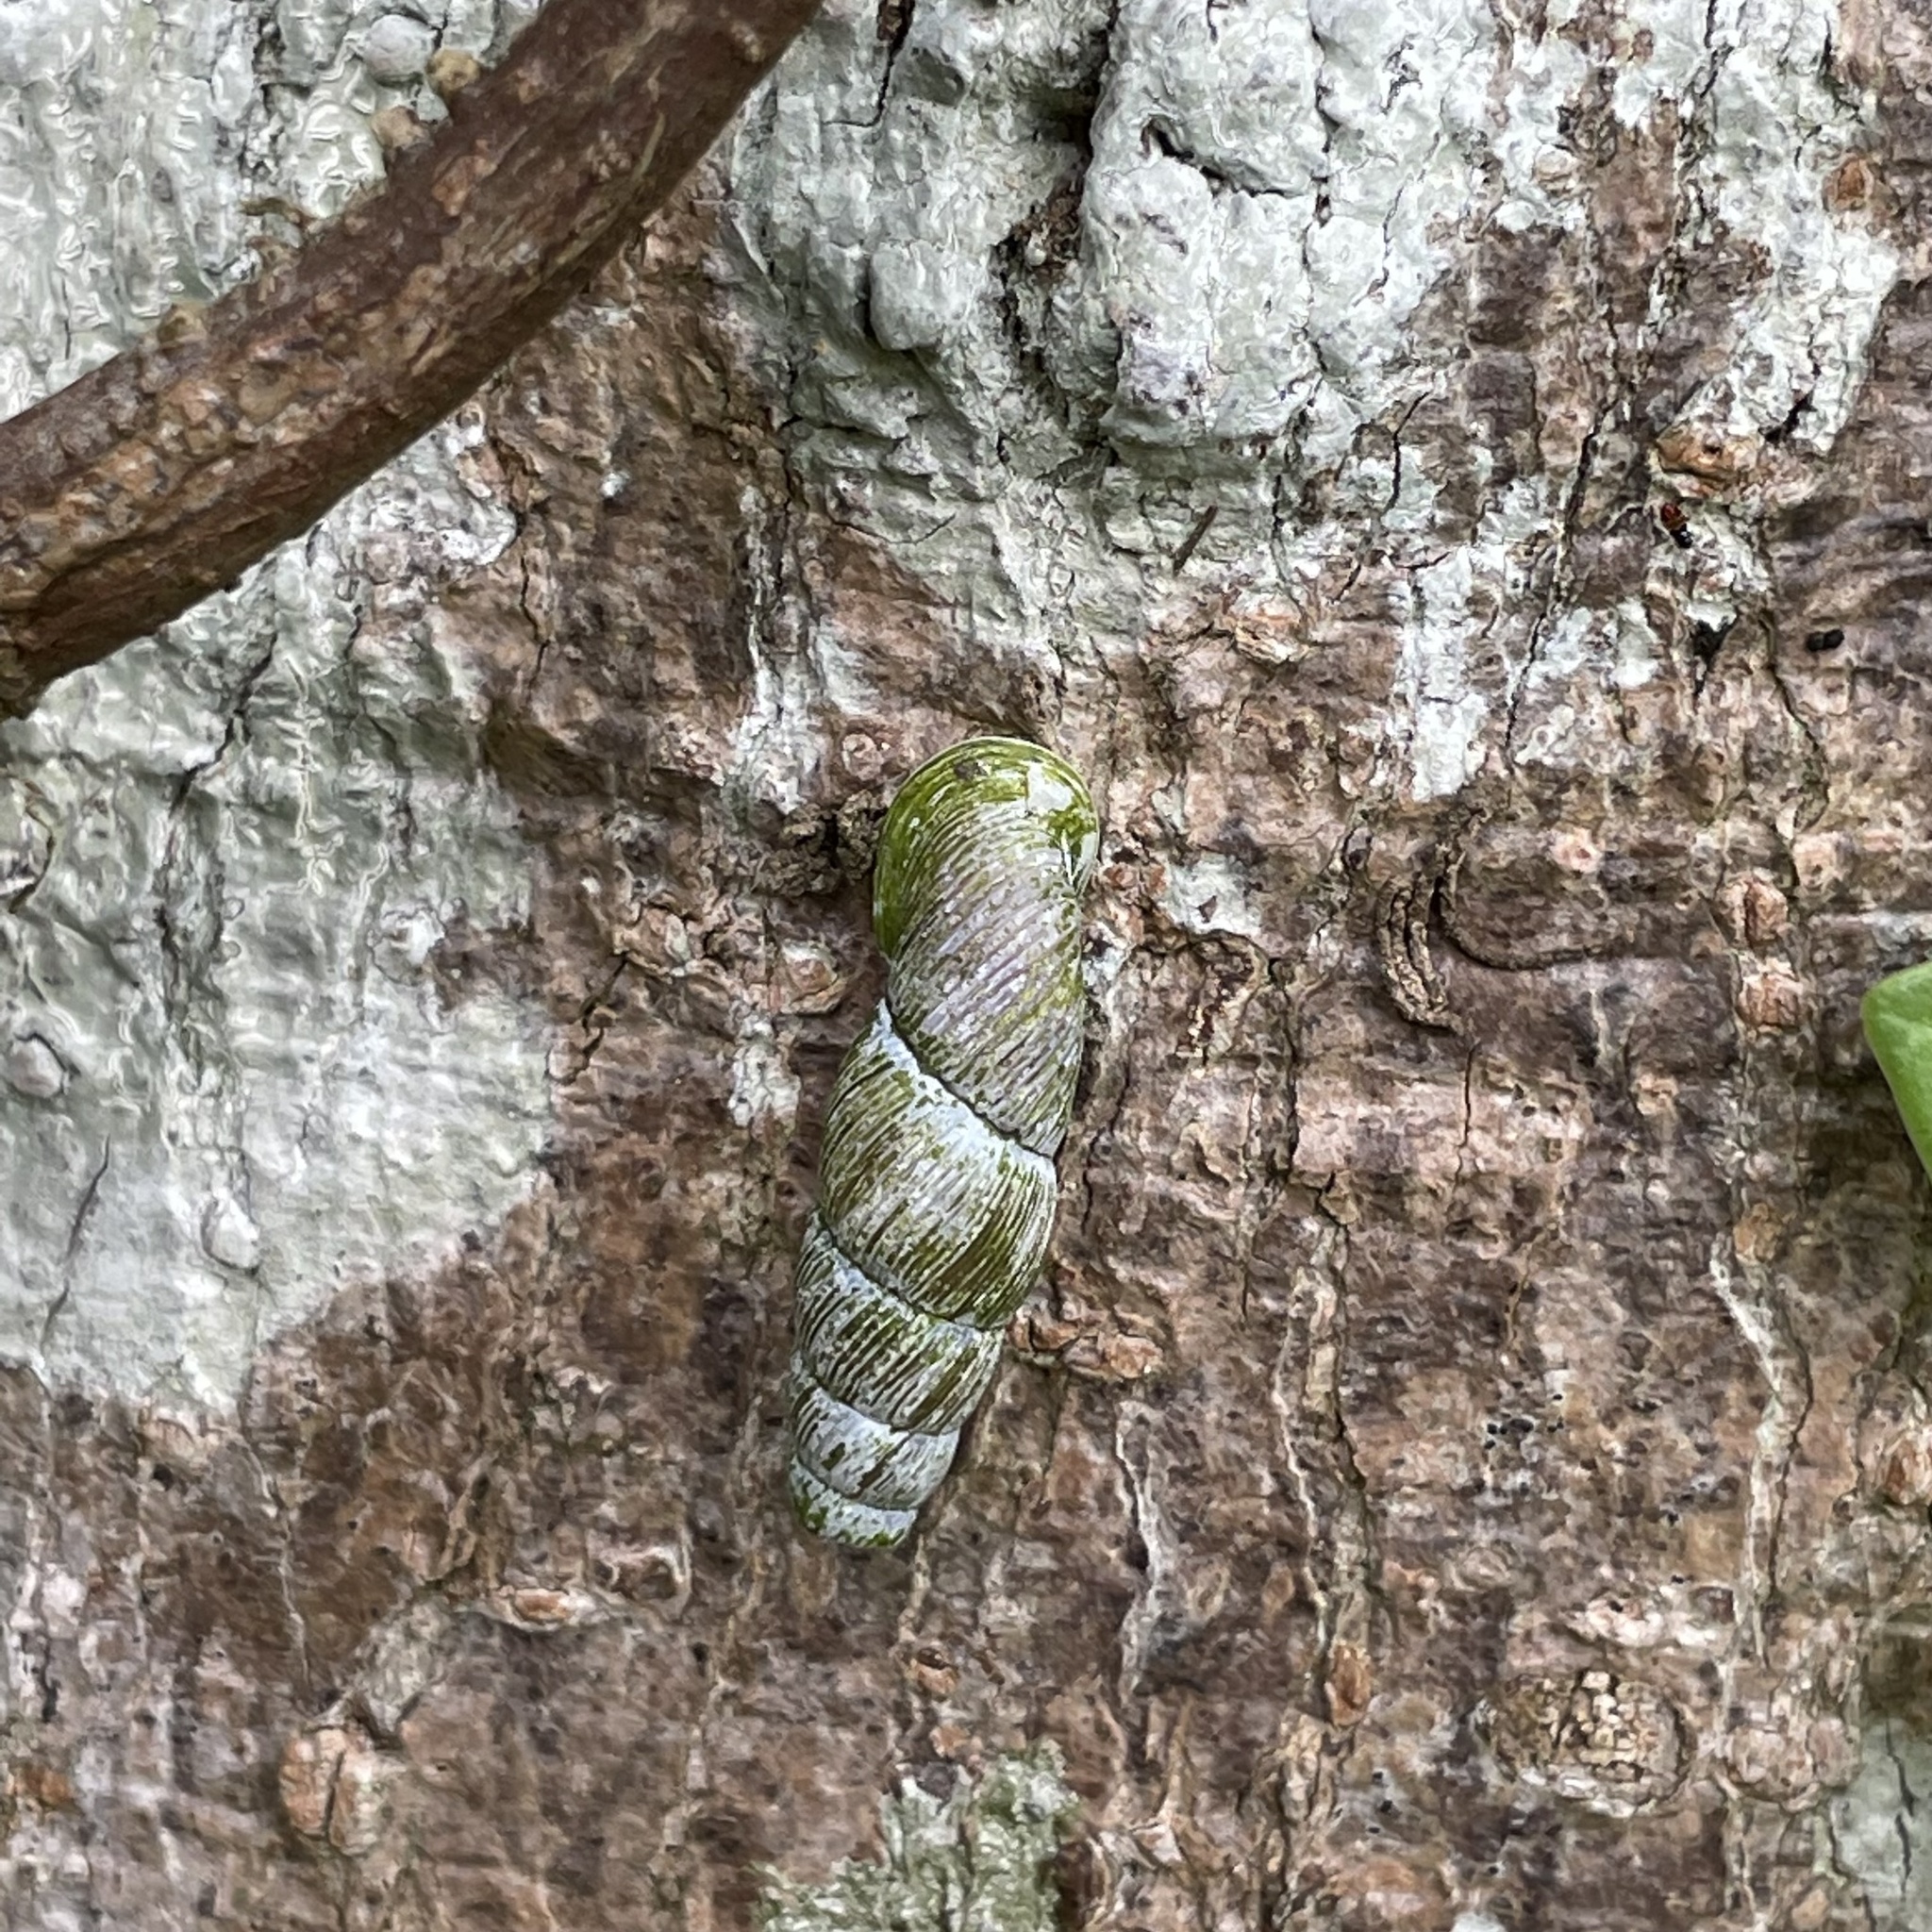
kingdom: Animalia
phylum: Mollusca
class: Gastropoda
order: Stylommatophora
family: Clausiliidae
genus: Stereophaedusa
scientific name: Stereophaedusa valida
